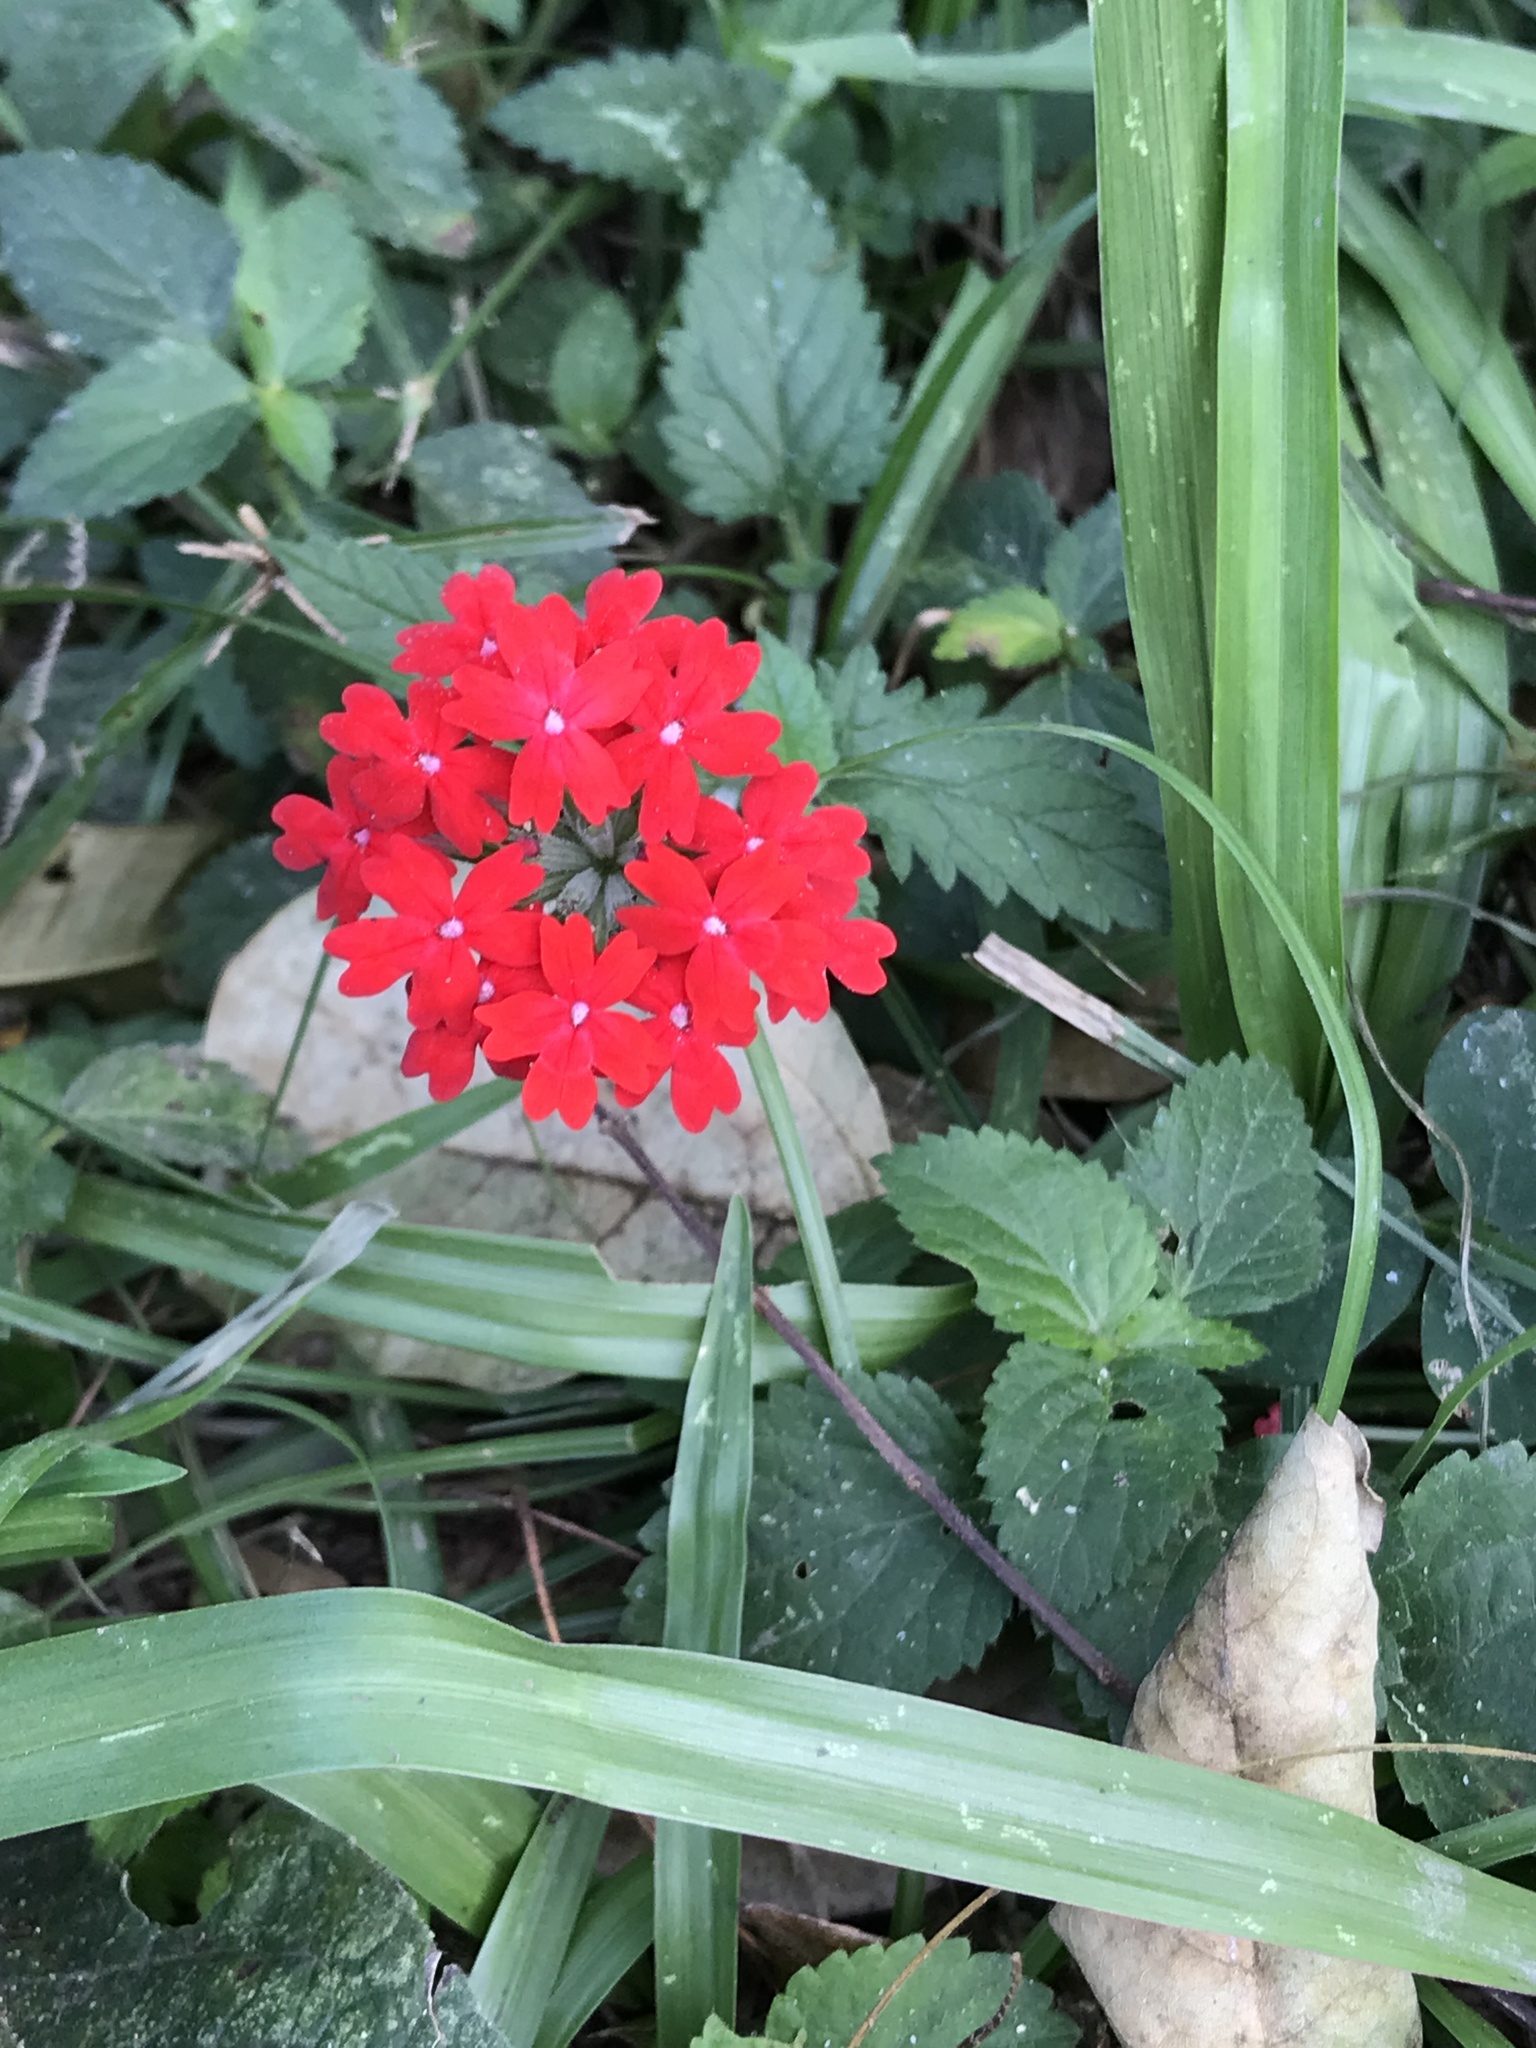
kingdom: Plantae
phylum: Tracheophyta
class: Magnoliopsida
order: Lamiales
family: Verbenaceae
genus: Verbena
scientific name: Verbena peruviana
